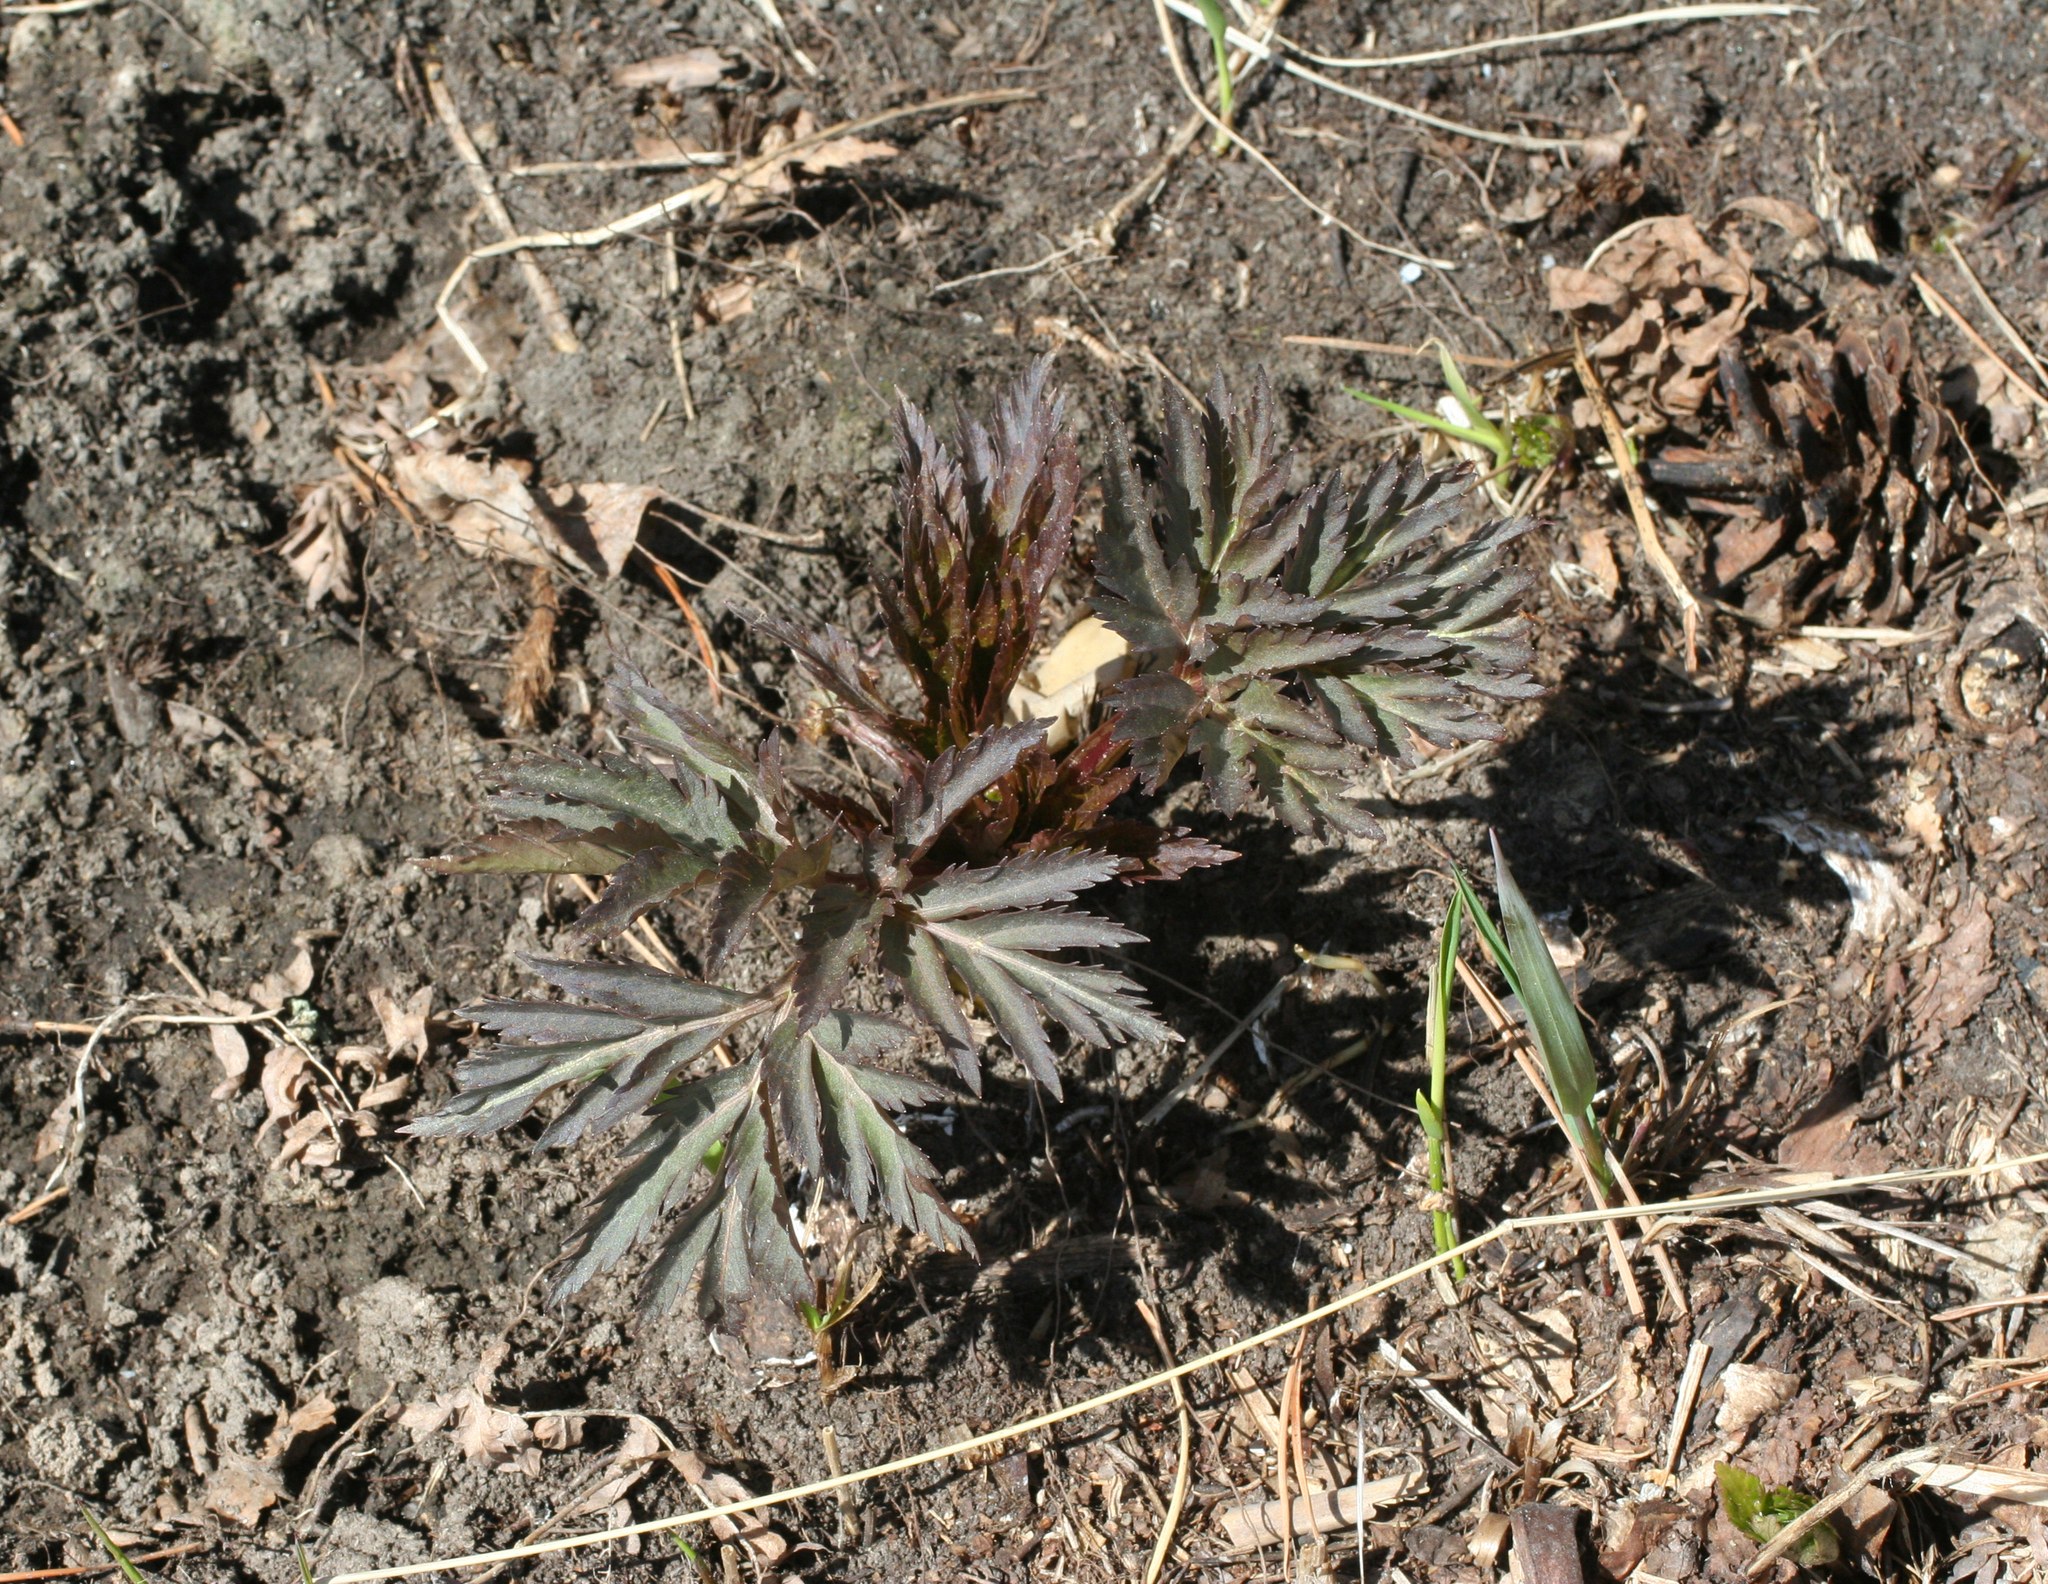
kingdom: Plantae
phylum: Tracheophyta
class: Magnoliopsida
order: Apiales
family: Apiaceae
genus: Pleurospermum
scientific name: Pleurospermum uralense
